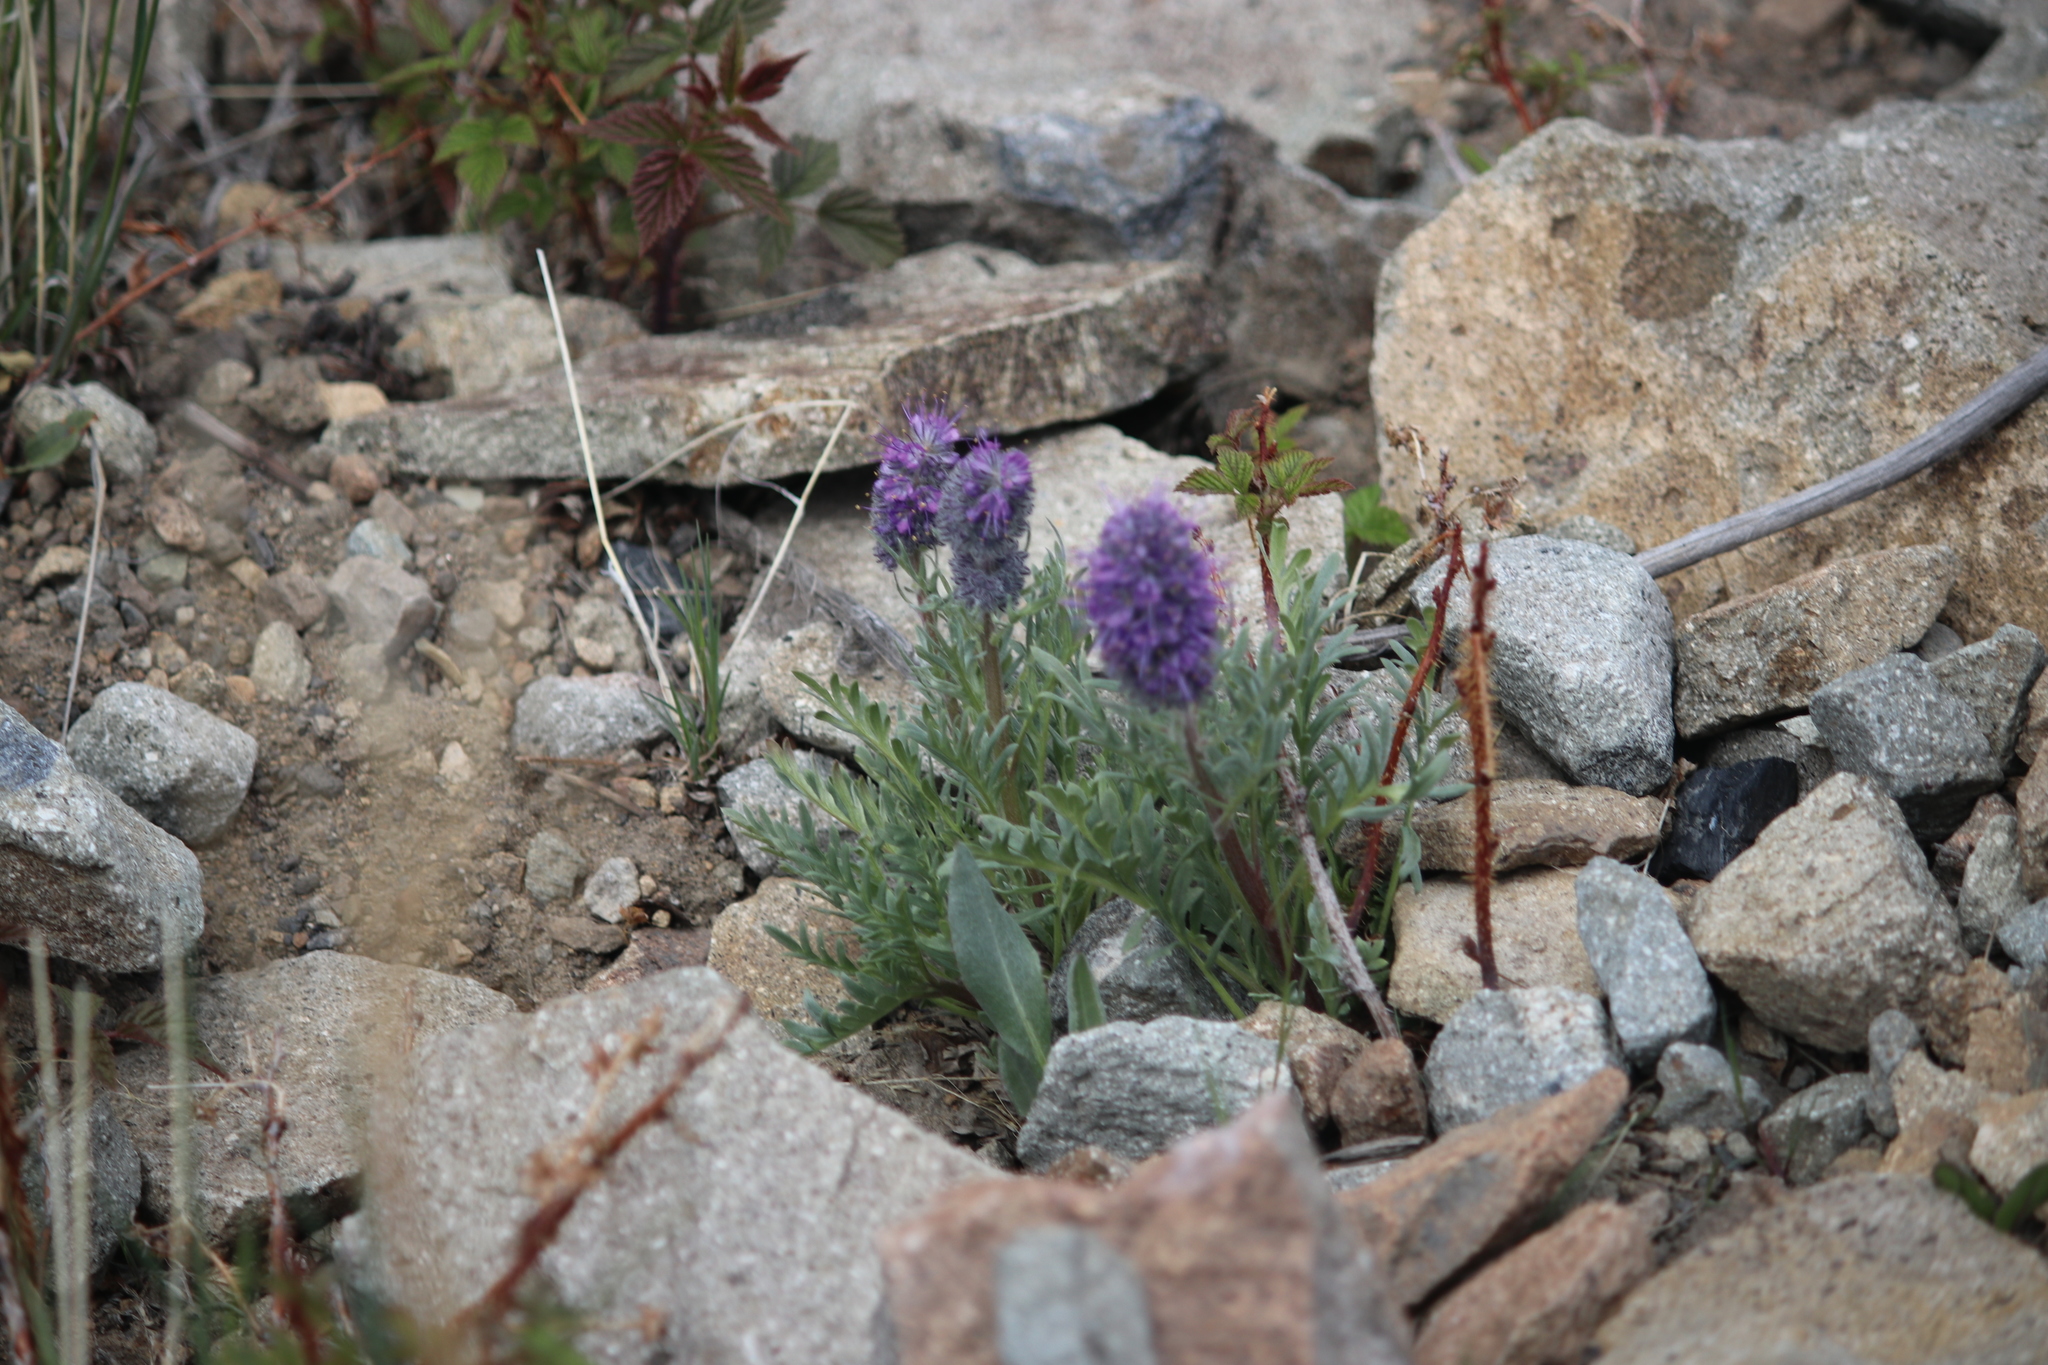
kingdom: Plantae
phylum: Tracheophyta
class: Magnoliopsida
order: Boraginales
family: Hydrophyllaceae
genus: Phacelia
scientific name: Phacelia sericea
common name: Silky phacelia
